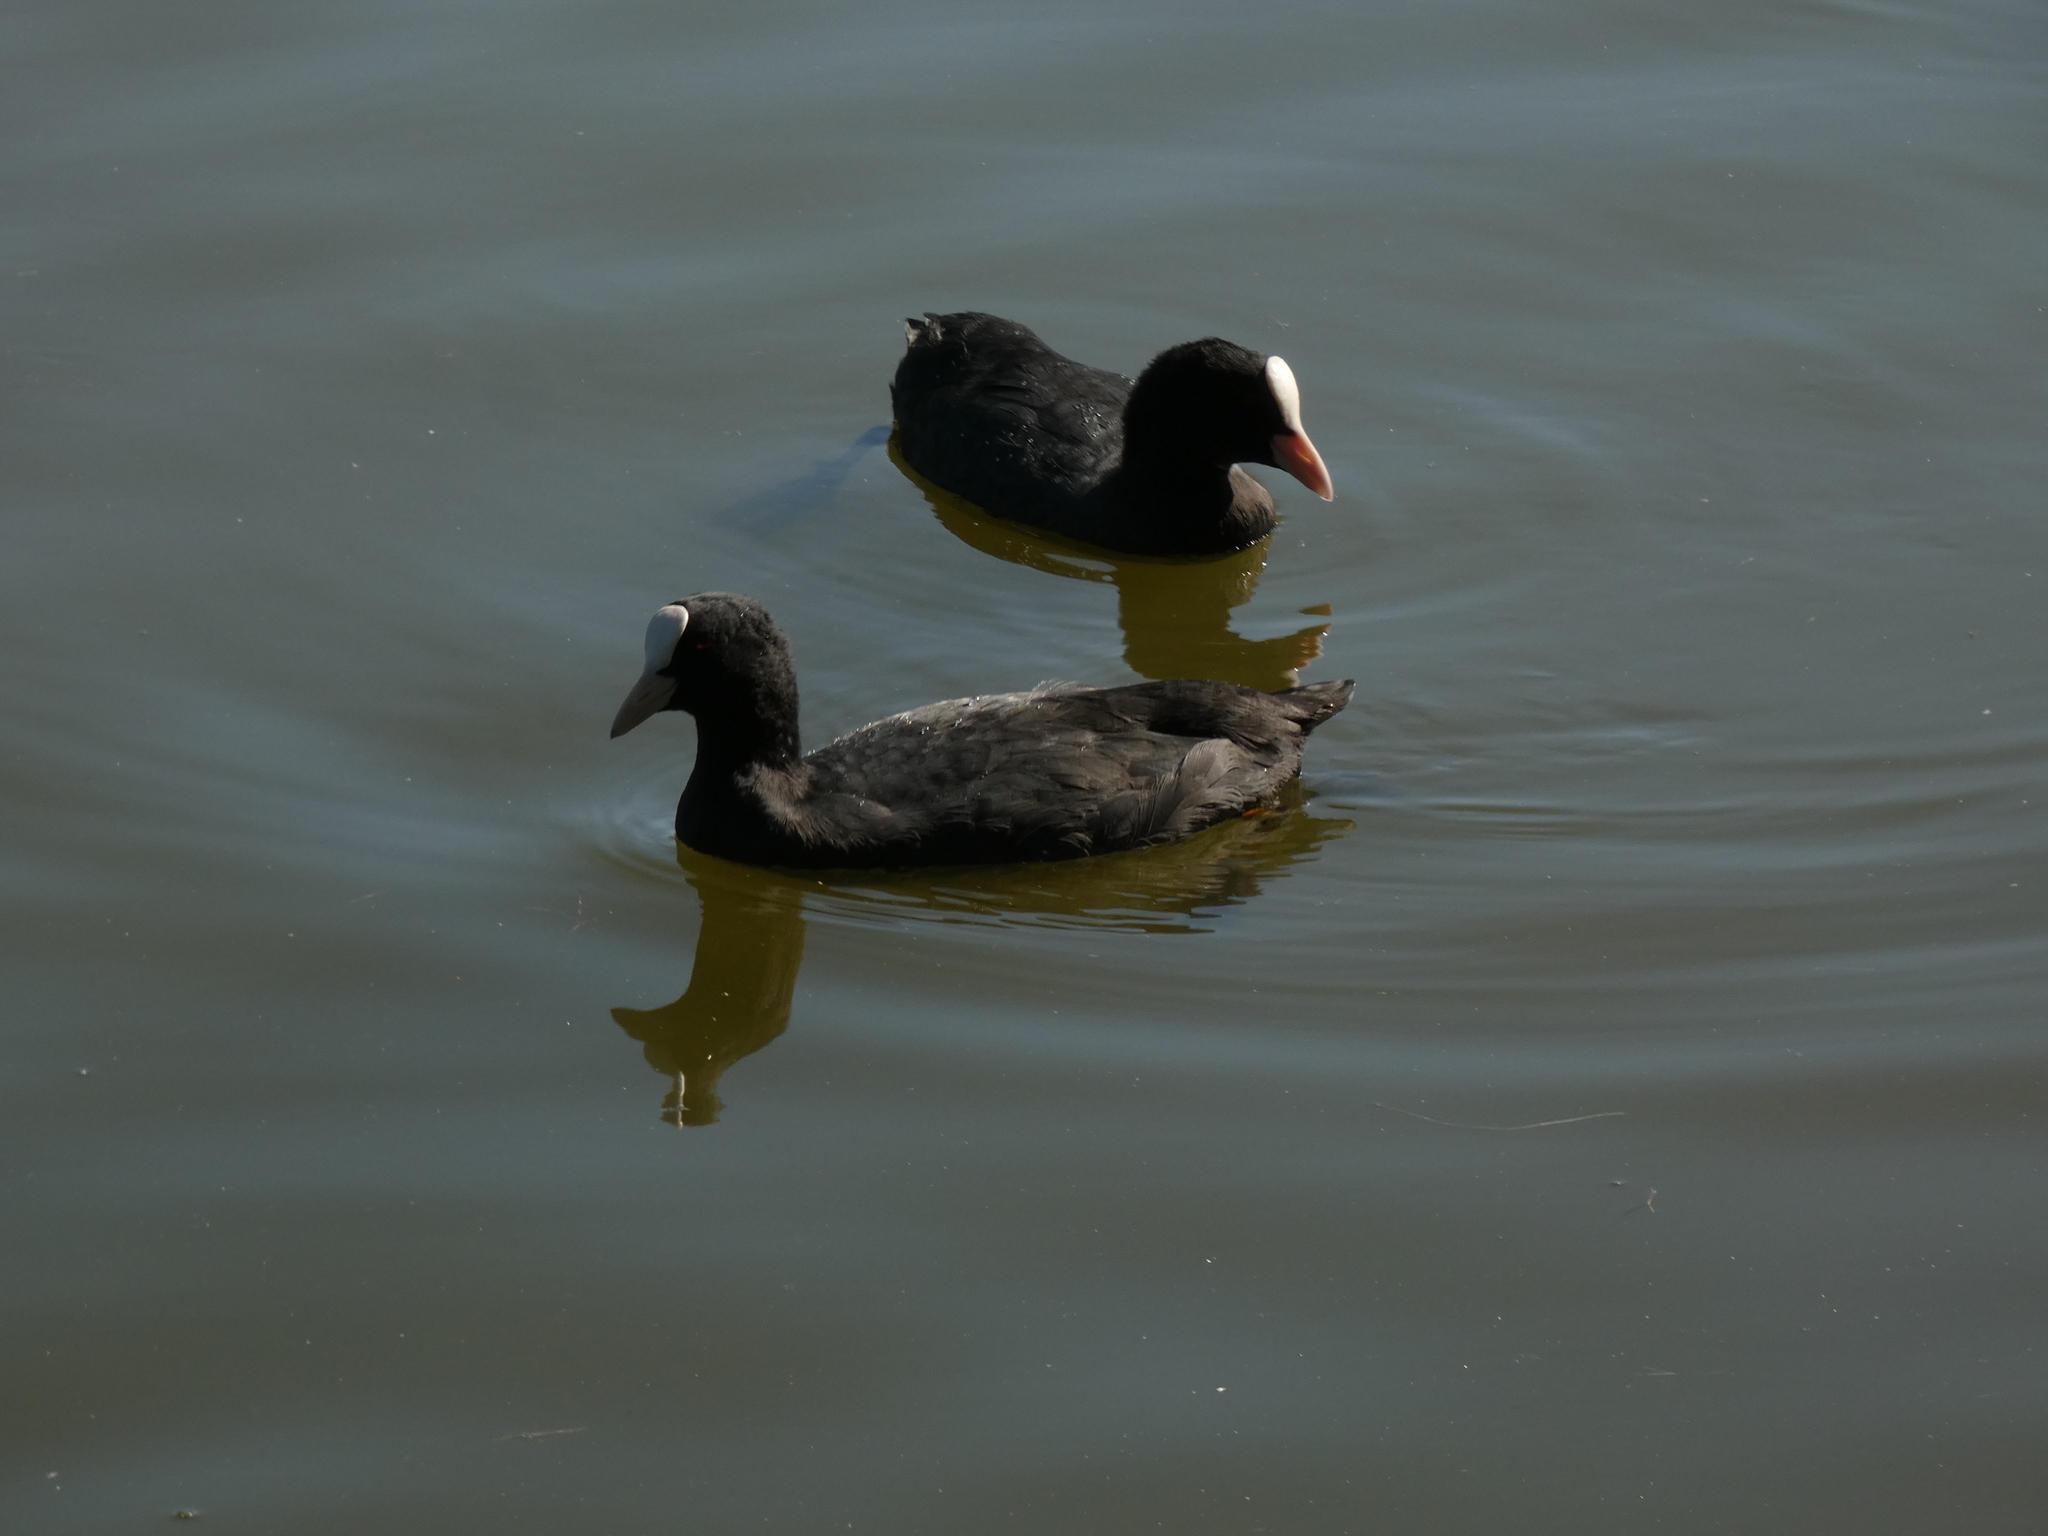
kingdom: Animalia
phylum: Chordata
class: Aves
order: Gruiformes
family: Rallidae
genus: Fulica
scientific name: Fulica atra
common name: Eurasian coot
